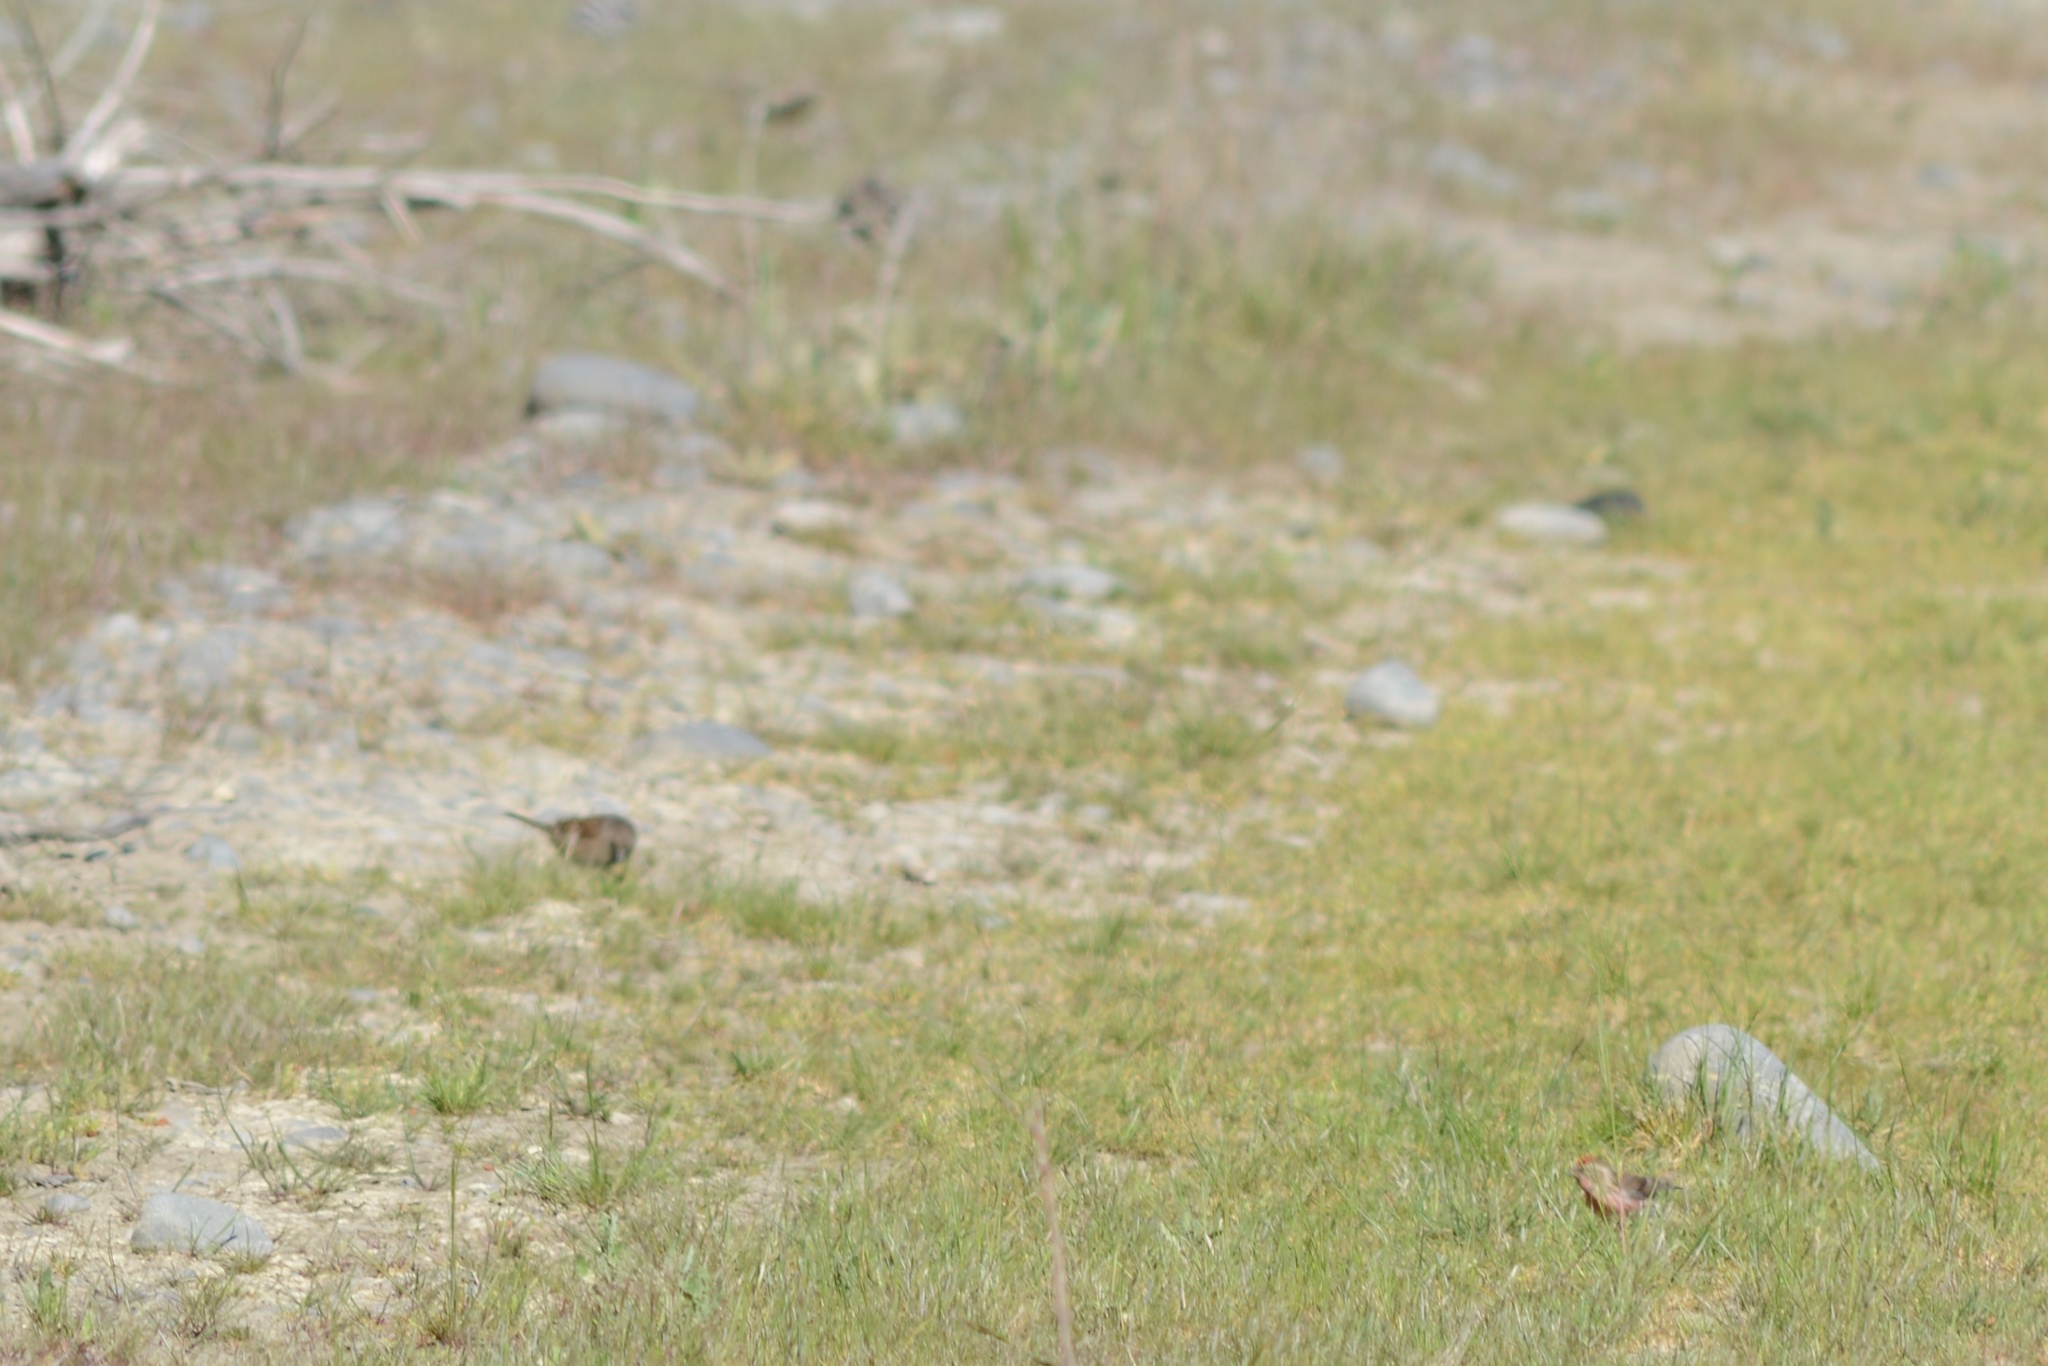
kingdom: Animalia
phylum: Chordata
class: Aves
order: Passeriformes
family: Fringillidae
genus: Acanthis
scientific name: Acanthis flammea
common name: Common redpoll
